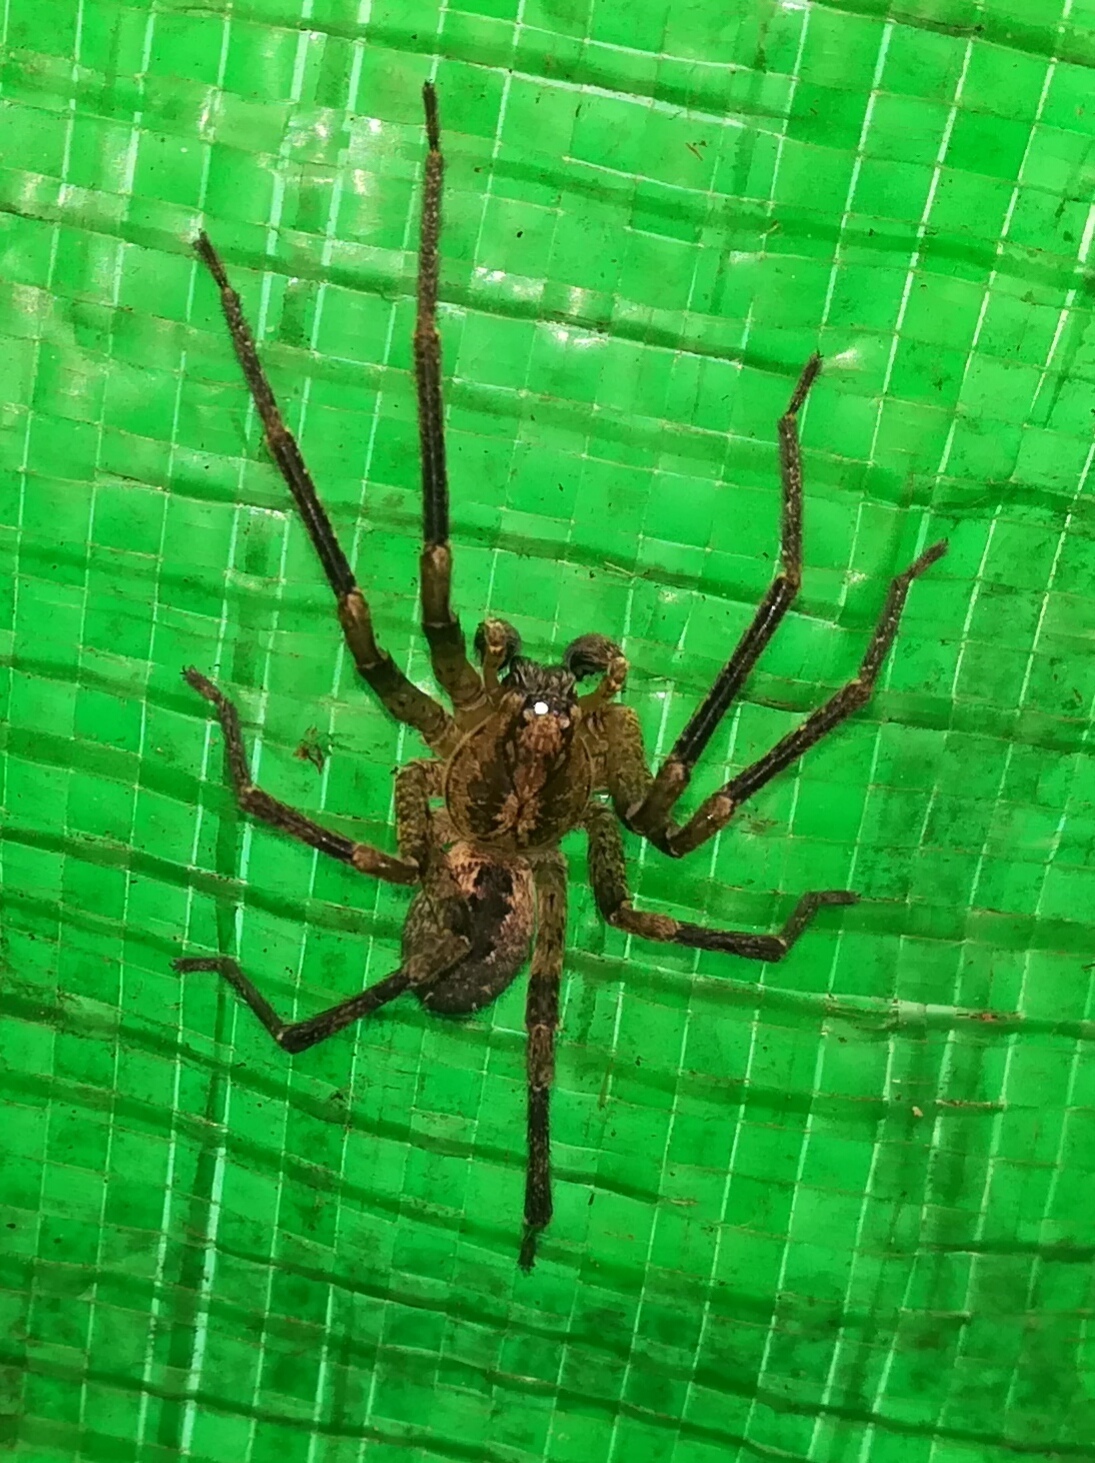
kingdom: Animalia
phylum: Arthropoda
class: Arachnida
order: Araneae
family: Zoropsidae
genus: Zoropsis
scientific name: Zoropsis spinimana
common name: Zoropsid spider
